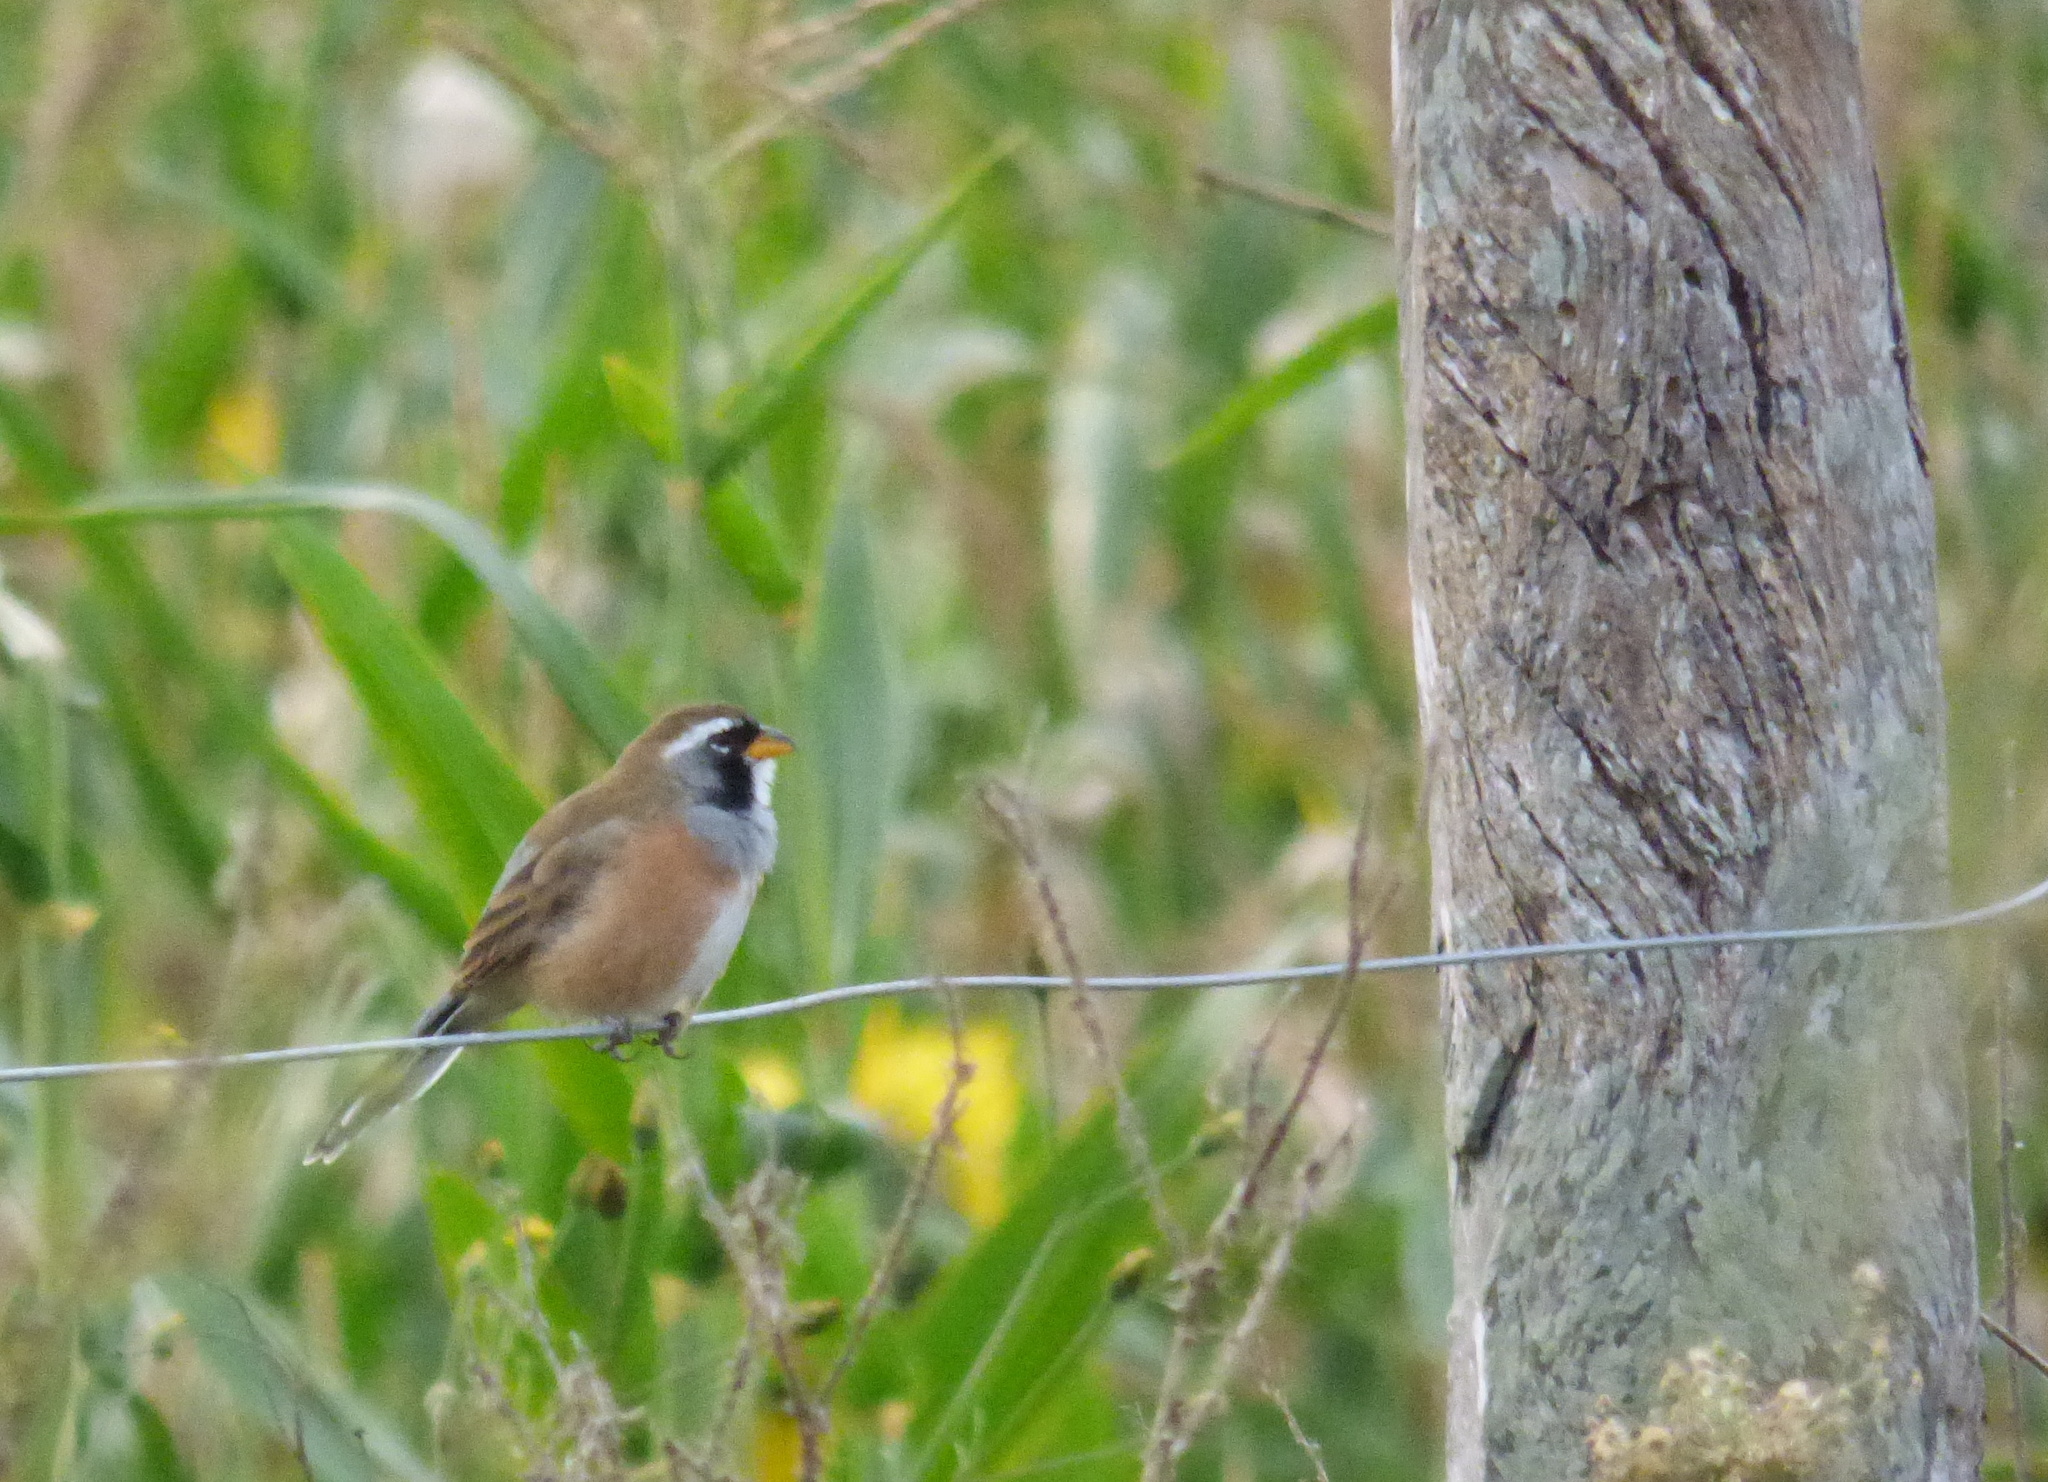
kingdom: Animalia
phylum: Chordata
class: Aves
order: Passeriformes
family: Thraupidae
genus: Saltatricula
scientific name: Saltatricula multicolor
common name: Many-colored chaco finch
